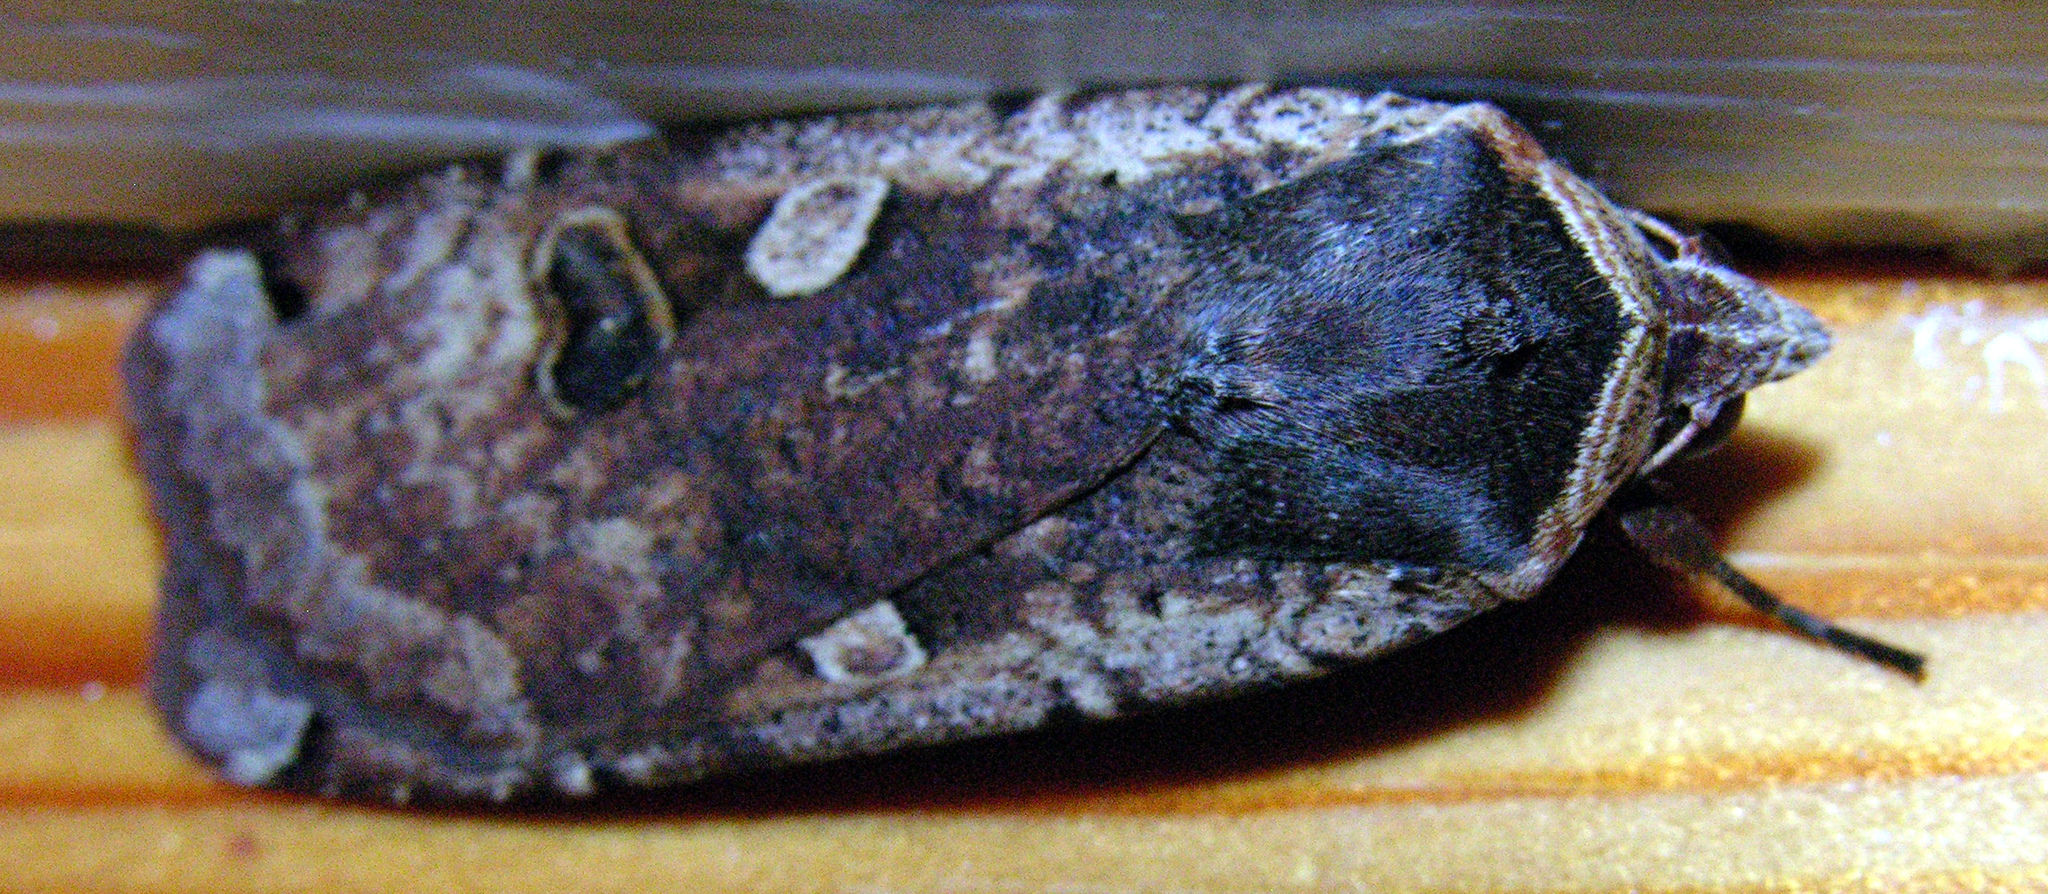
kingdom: Animalia
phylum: Arthropoda
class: Insecta
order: Lepidoptera
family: Noctuidae
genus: Noctua
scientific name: Noctua pronuba
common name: Large yellow underwing
